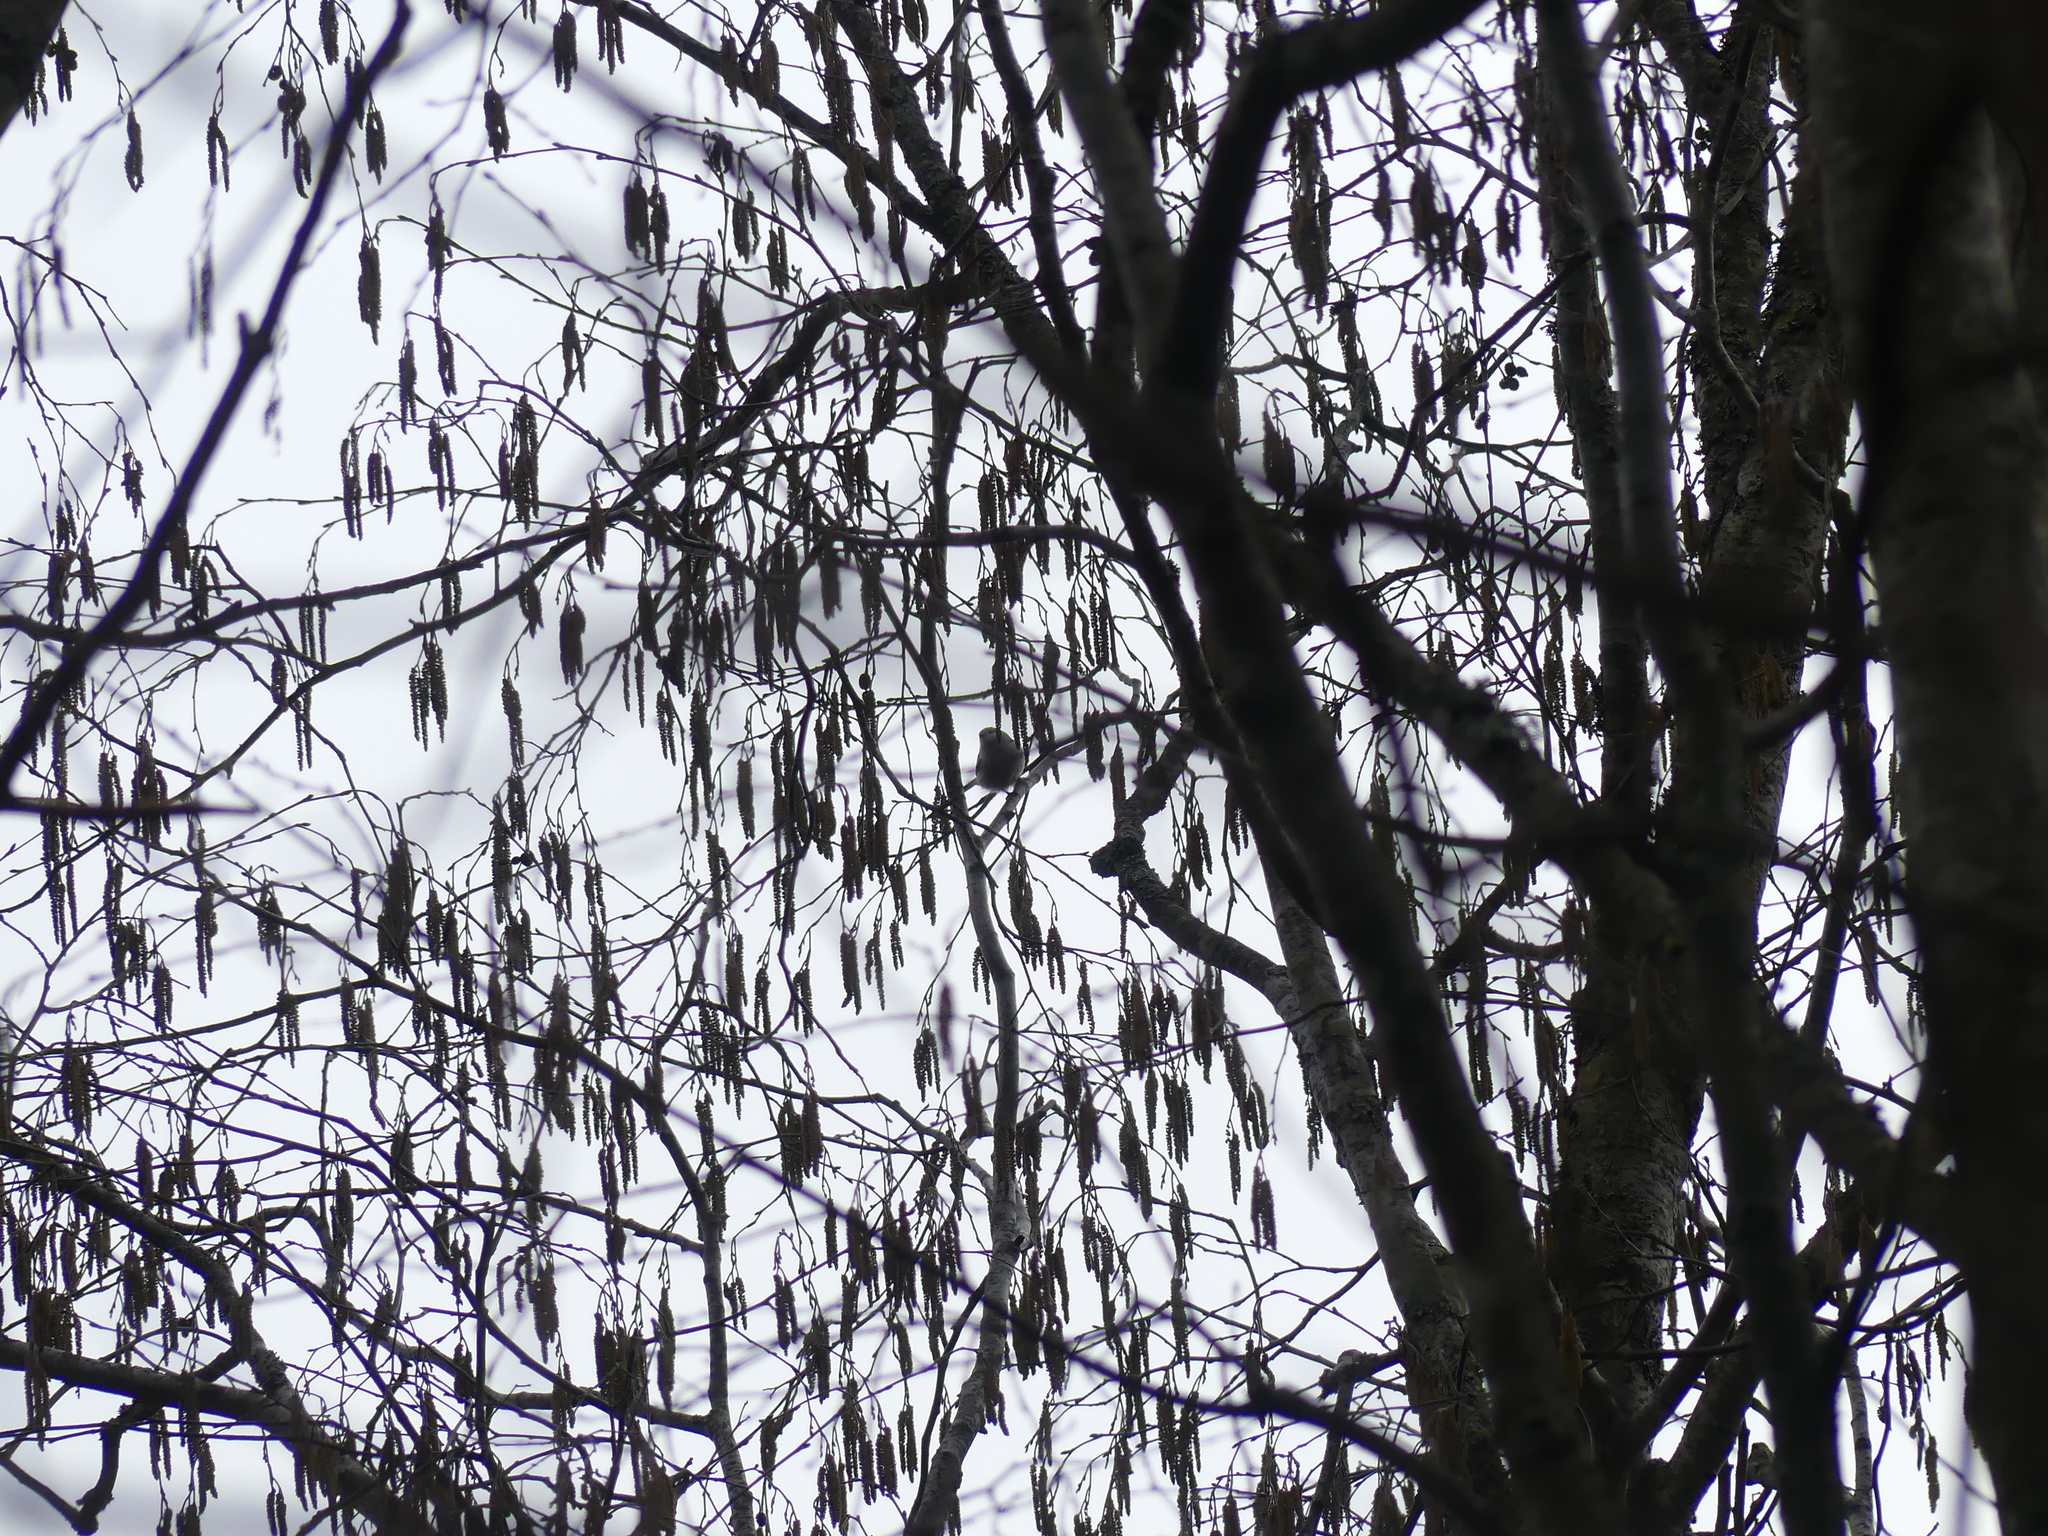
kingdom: Plantae
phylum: Tracheophyta
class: Magnoliopsida
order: Fagales
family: Betulaceae
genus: Corylus
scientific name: Corylus avellana
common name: European hazel
